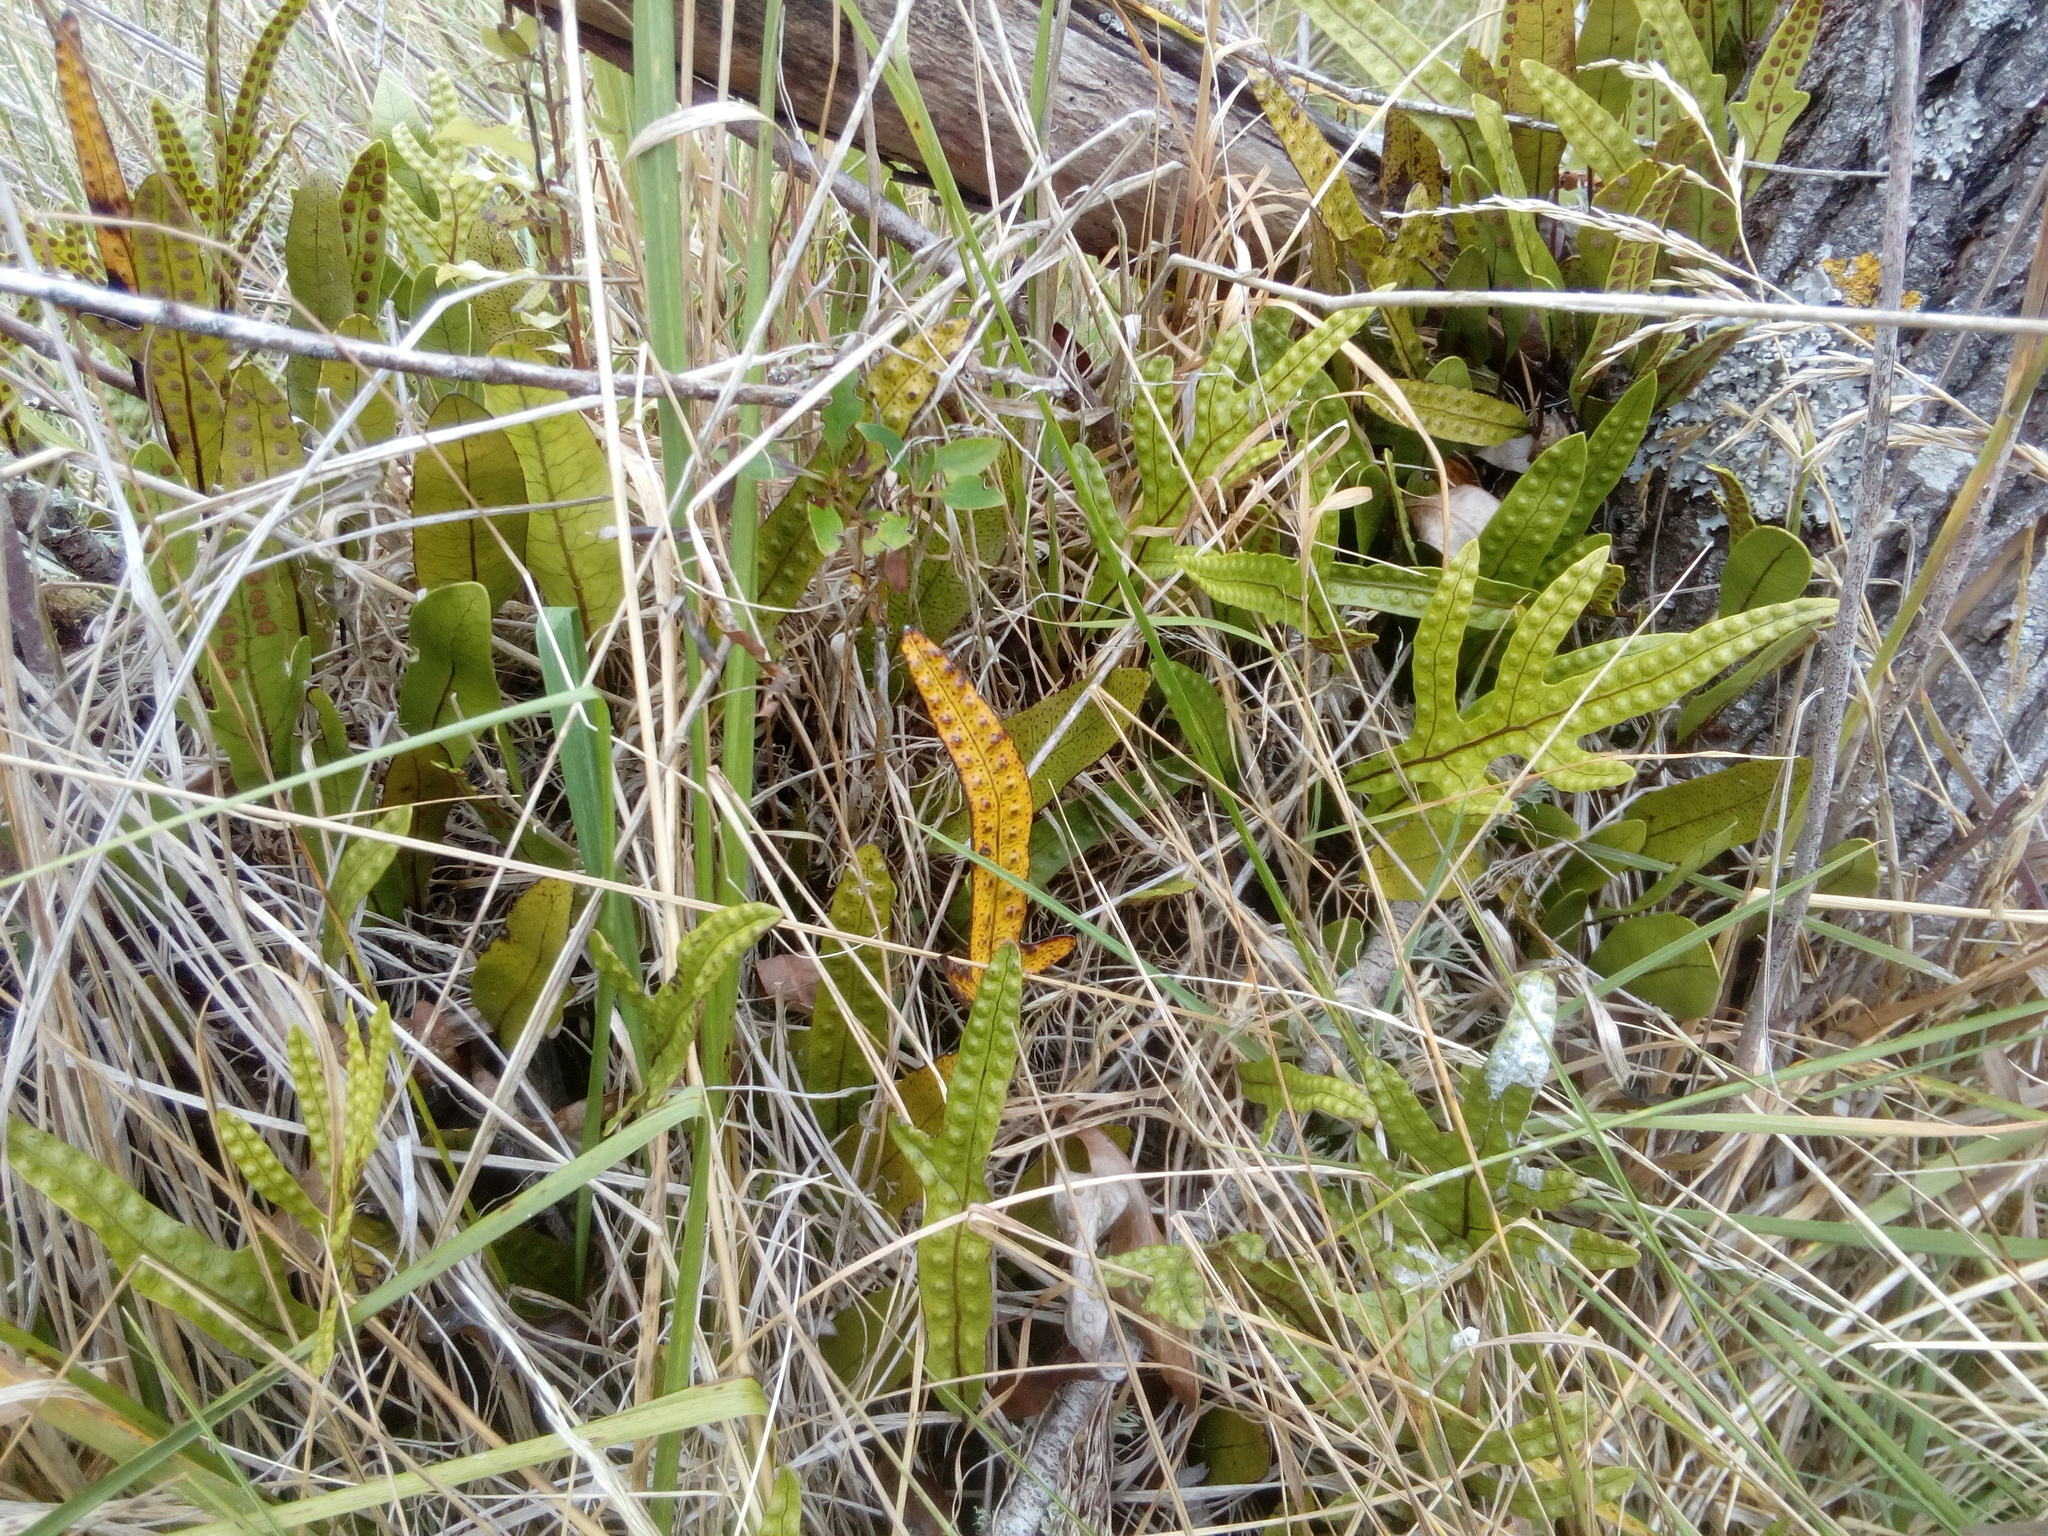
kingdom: Plantae
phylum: Tracheophyta
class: Polypodiopsida
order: Polypodiales
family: Polypodiaceae
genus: Lecanopteris
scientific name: Lecanopteris pustulata
